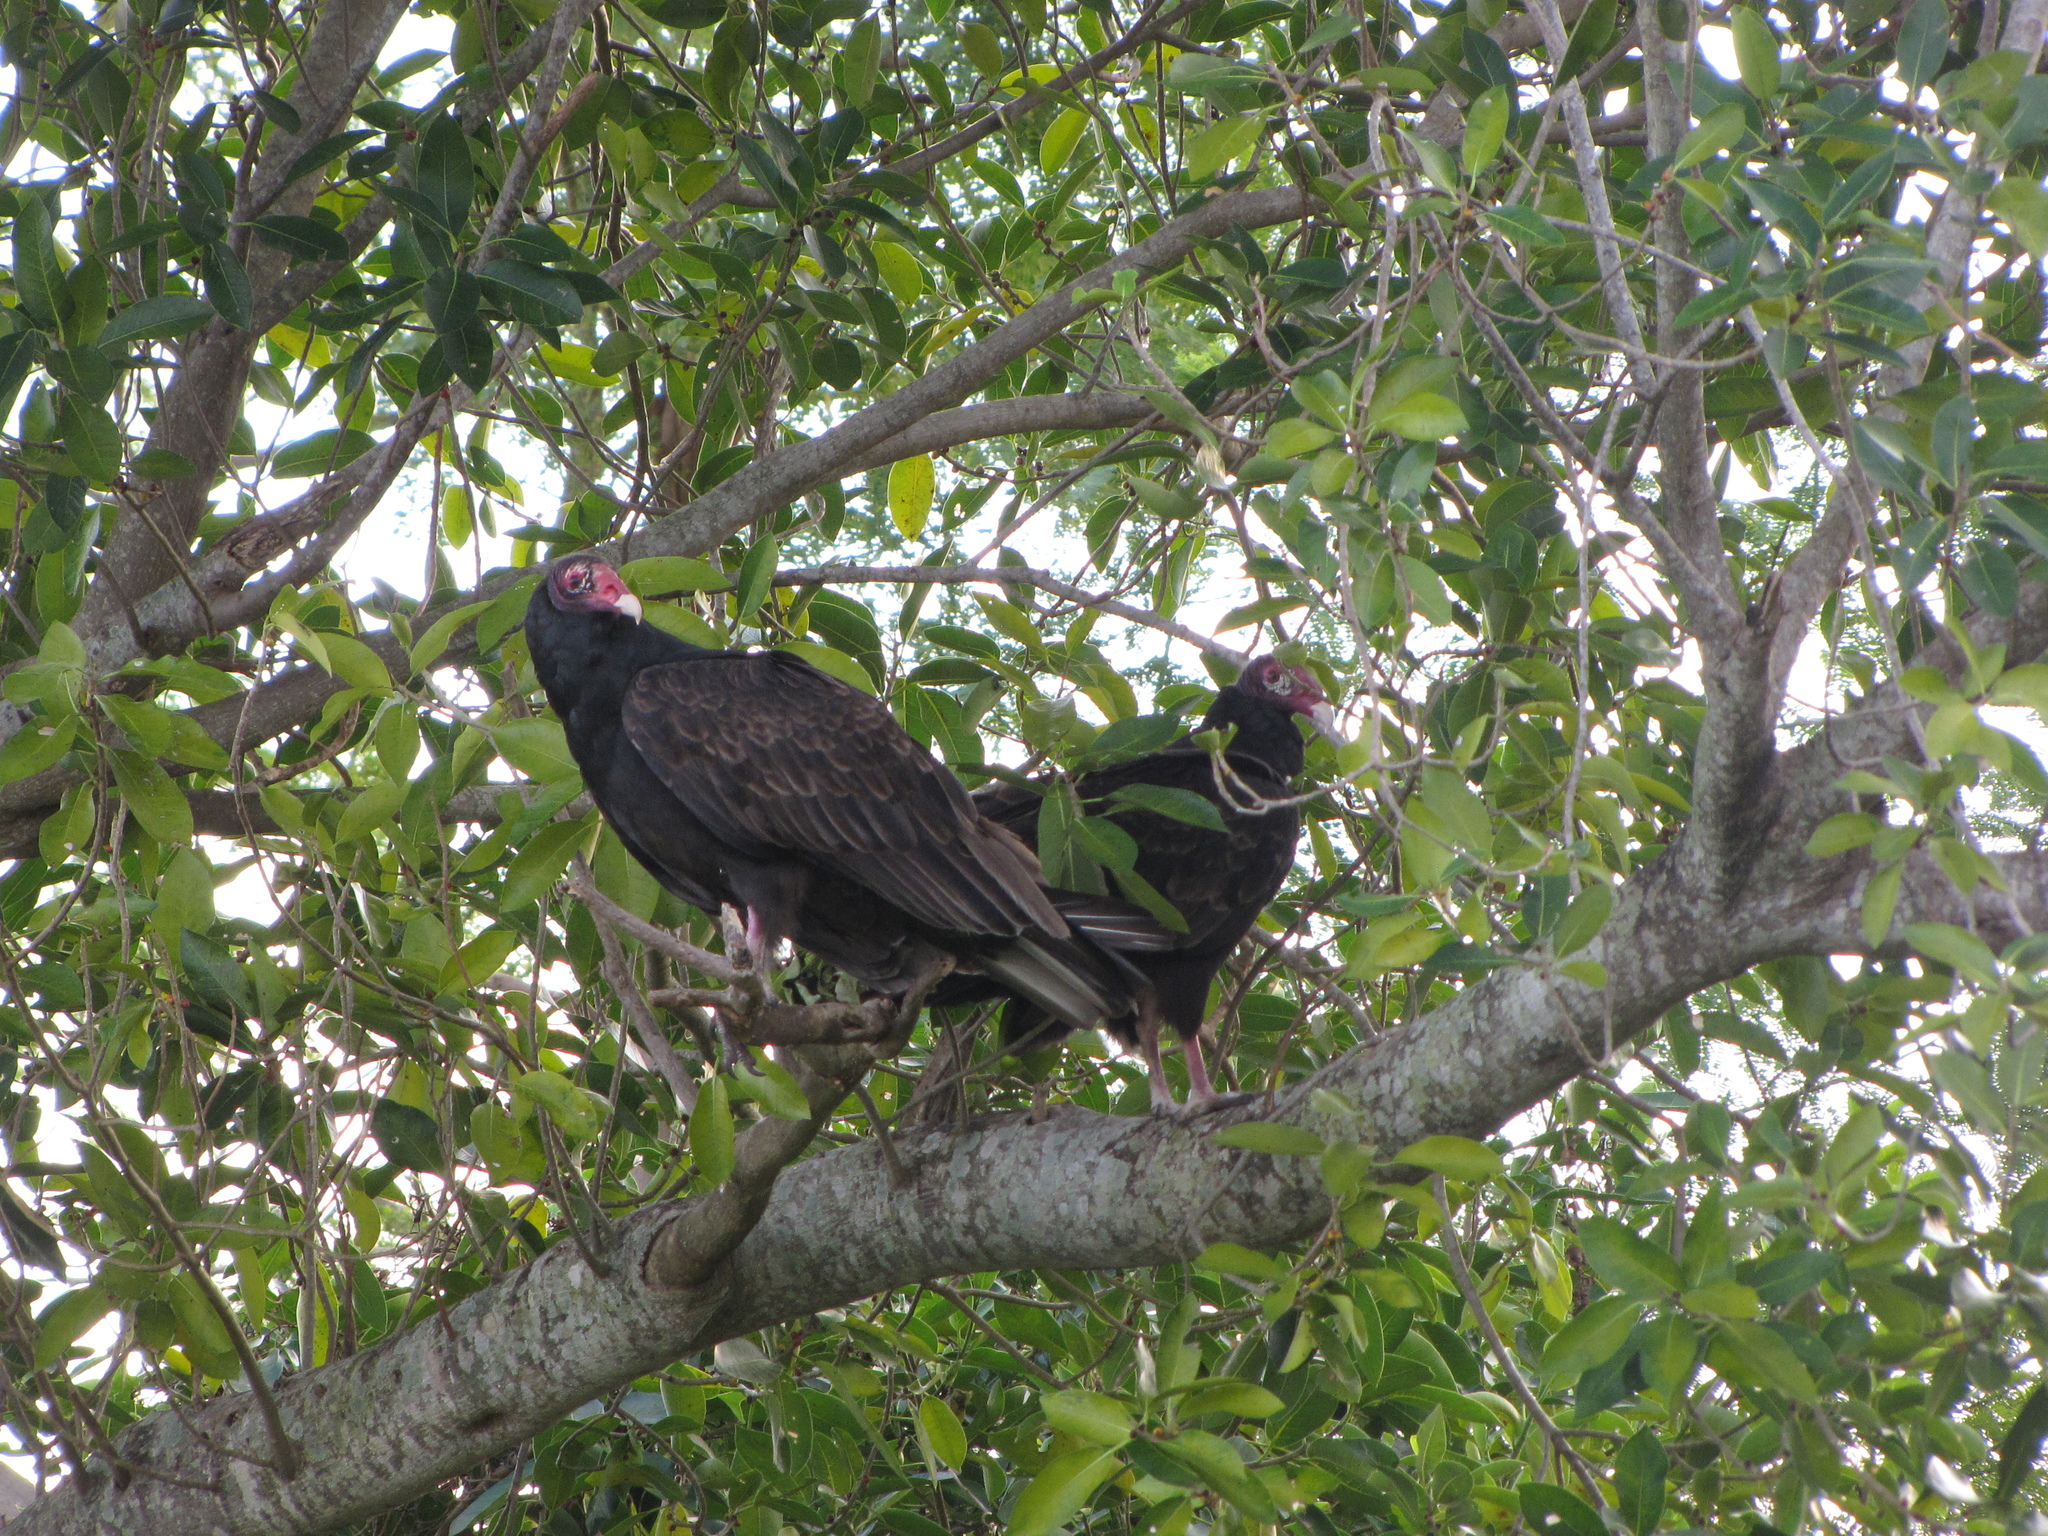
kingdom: Animalia
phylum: Chordata
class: Aves
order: Accipitriformes
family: Cathartidae
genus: Cathartes
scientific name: Cathartes aura
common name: Turkey vulture
